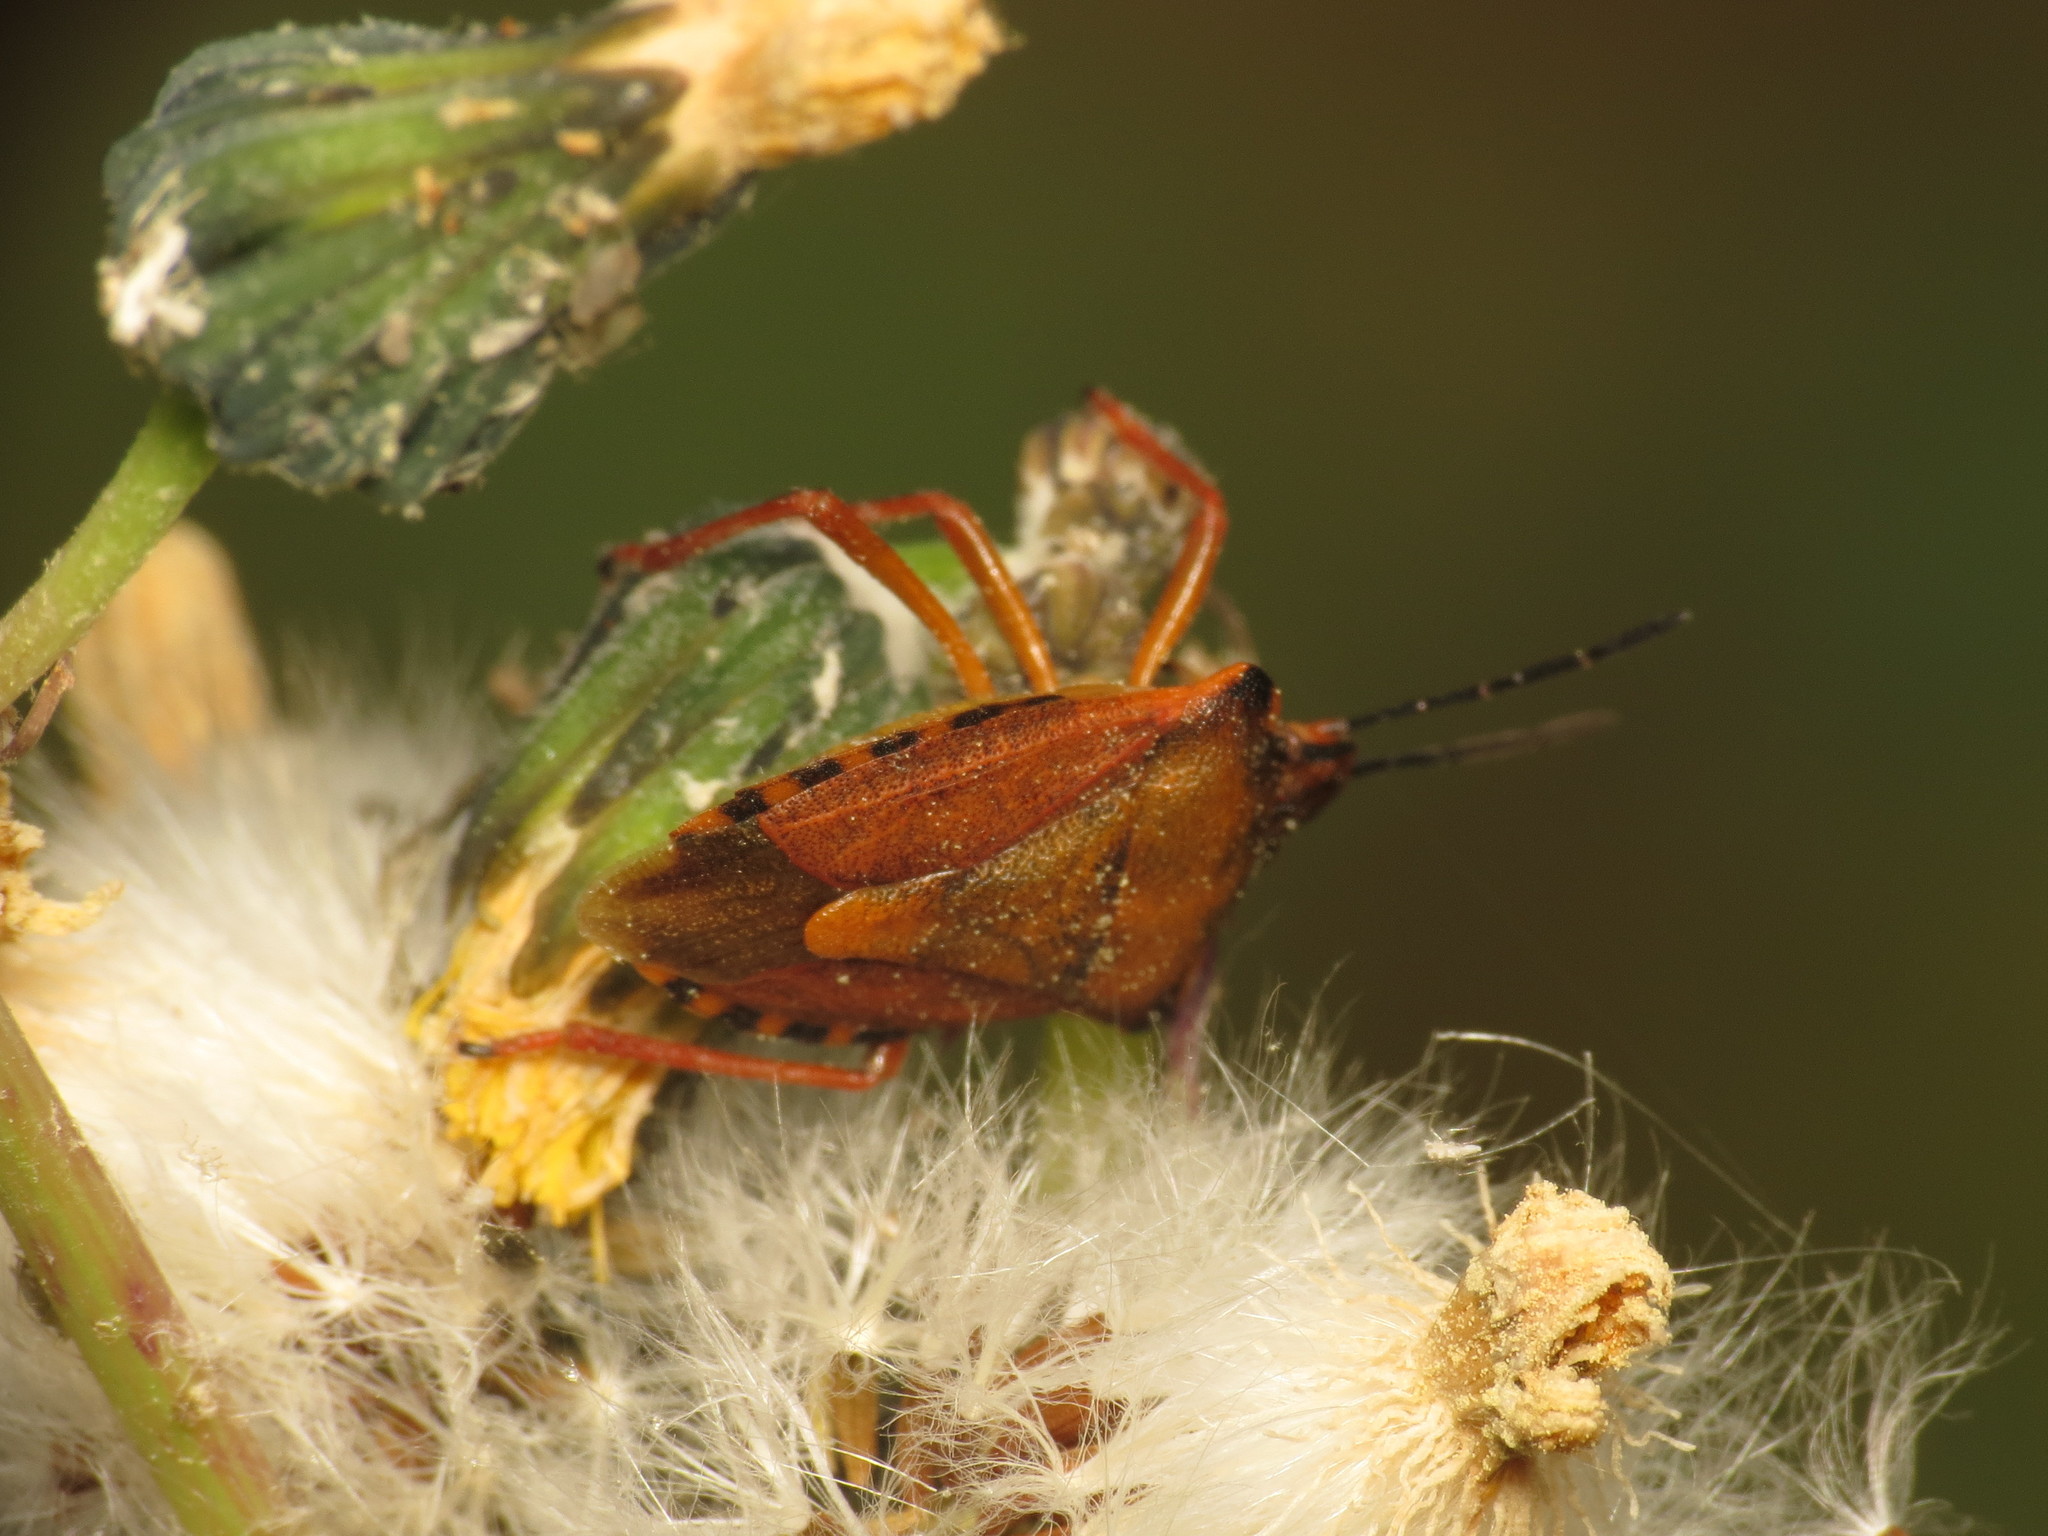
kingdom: Animalia
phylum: Arthropoda
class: Insecta
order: Hemiptera
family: Pentatomidae
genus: Carpocoris
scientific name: Carpocoris mediterraneus
